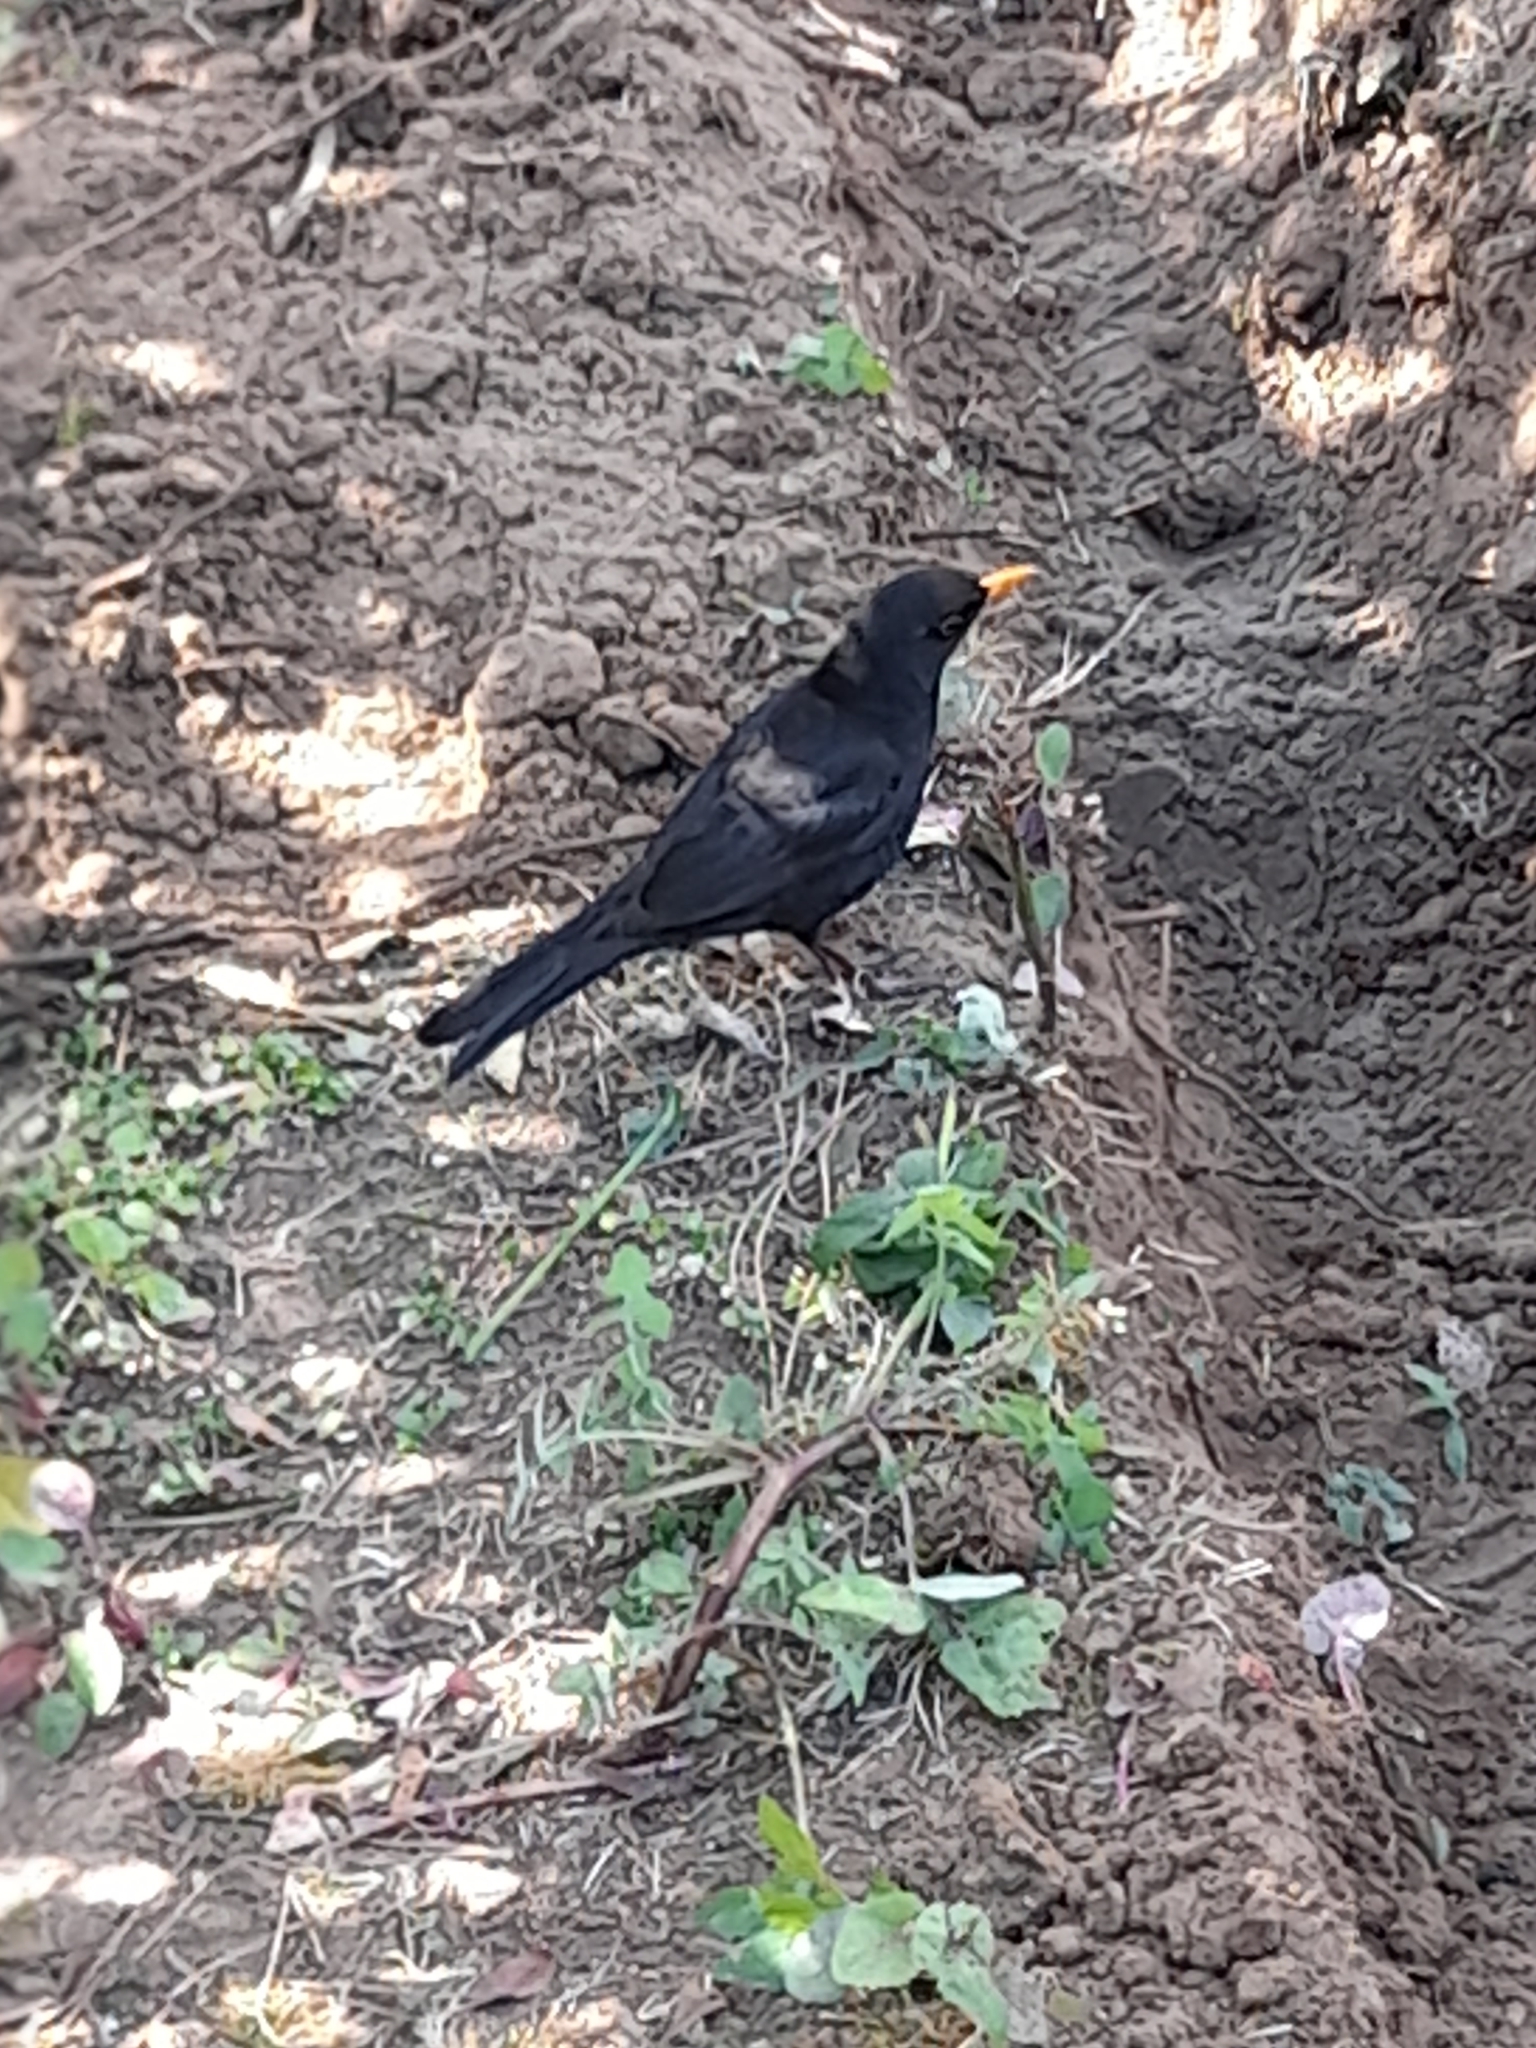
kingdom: Animalia
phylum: Chordata
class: Aves
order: Passeriformes
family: Turdidae
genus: Turdus
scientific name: Turdus merula
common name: Common blackbird
